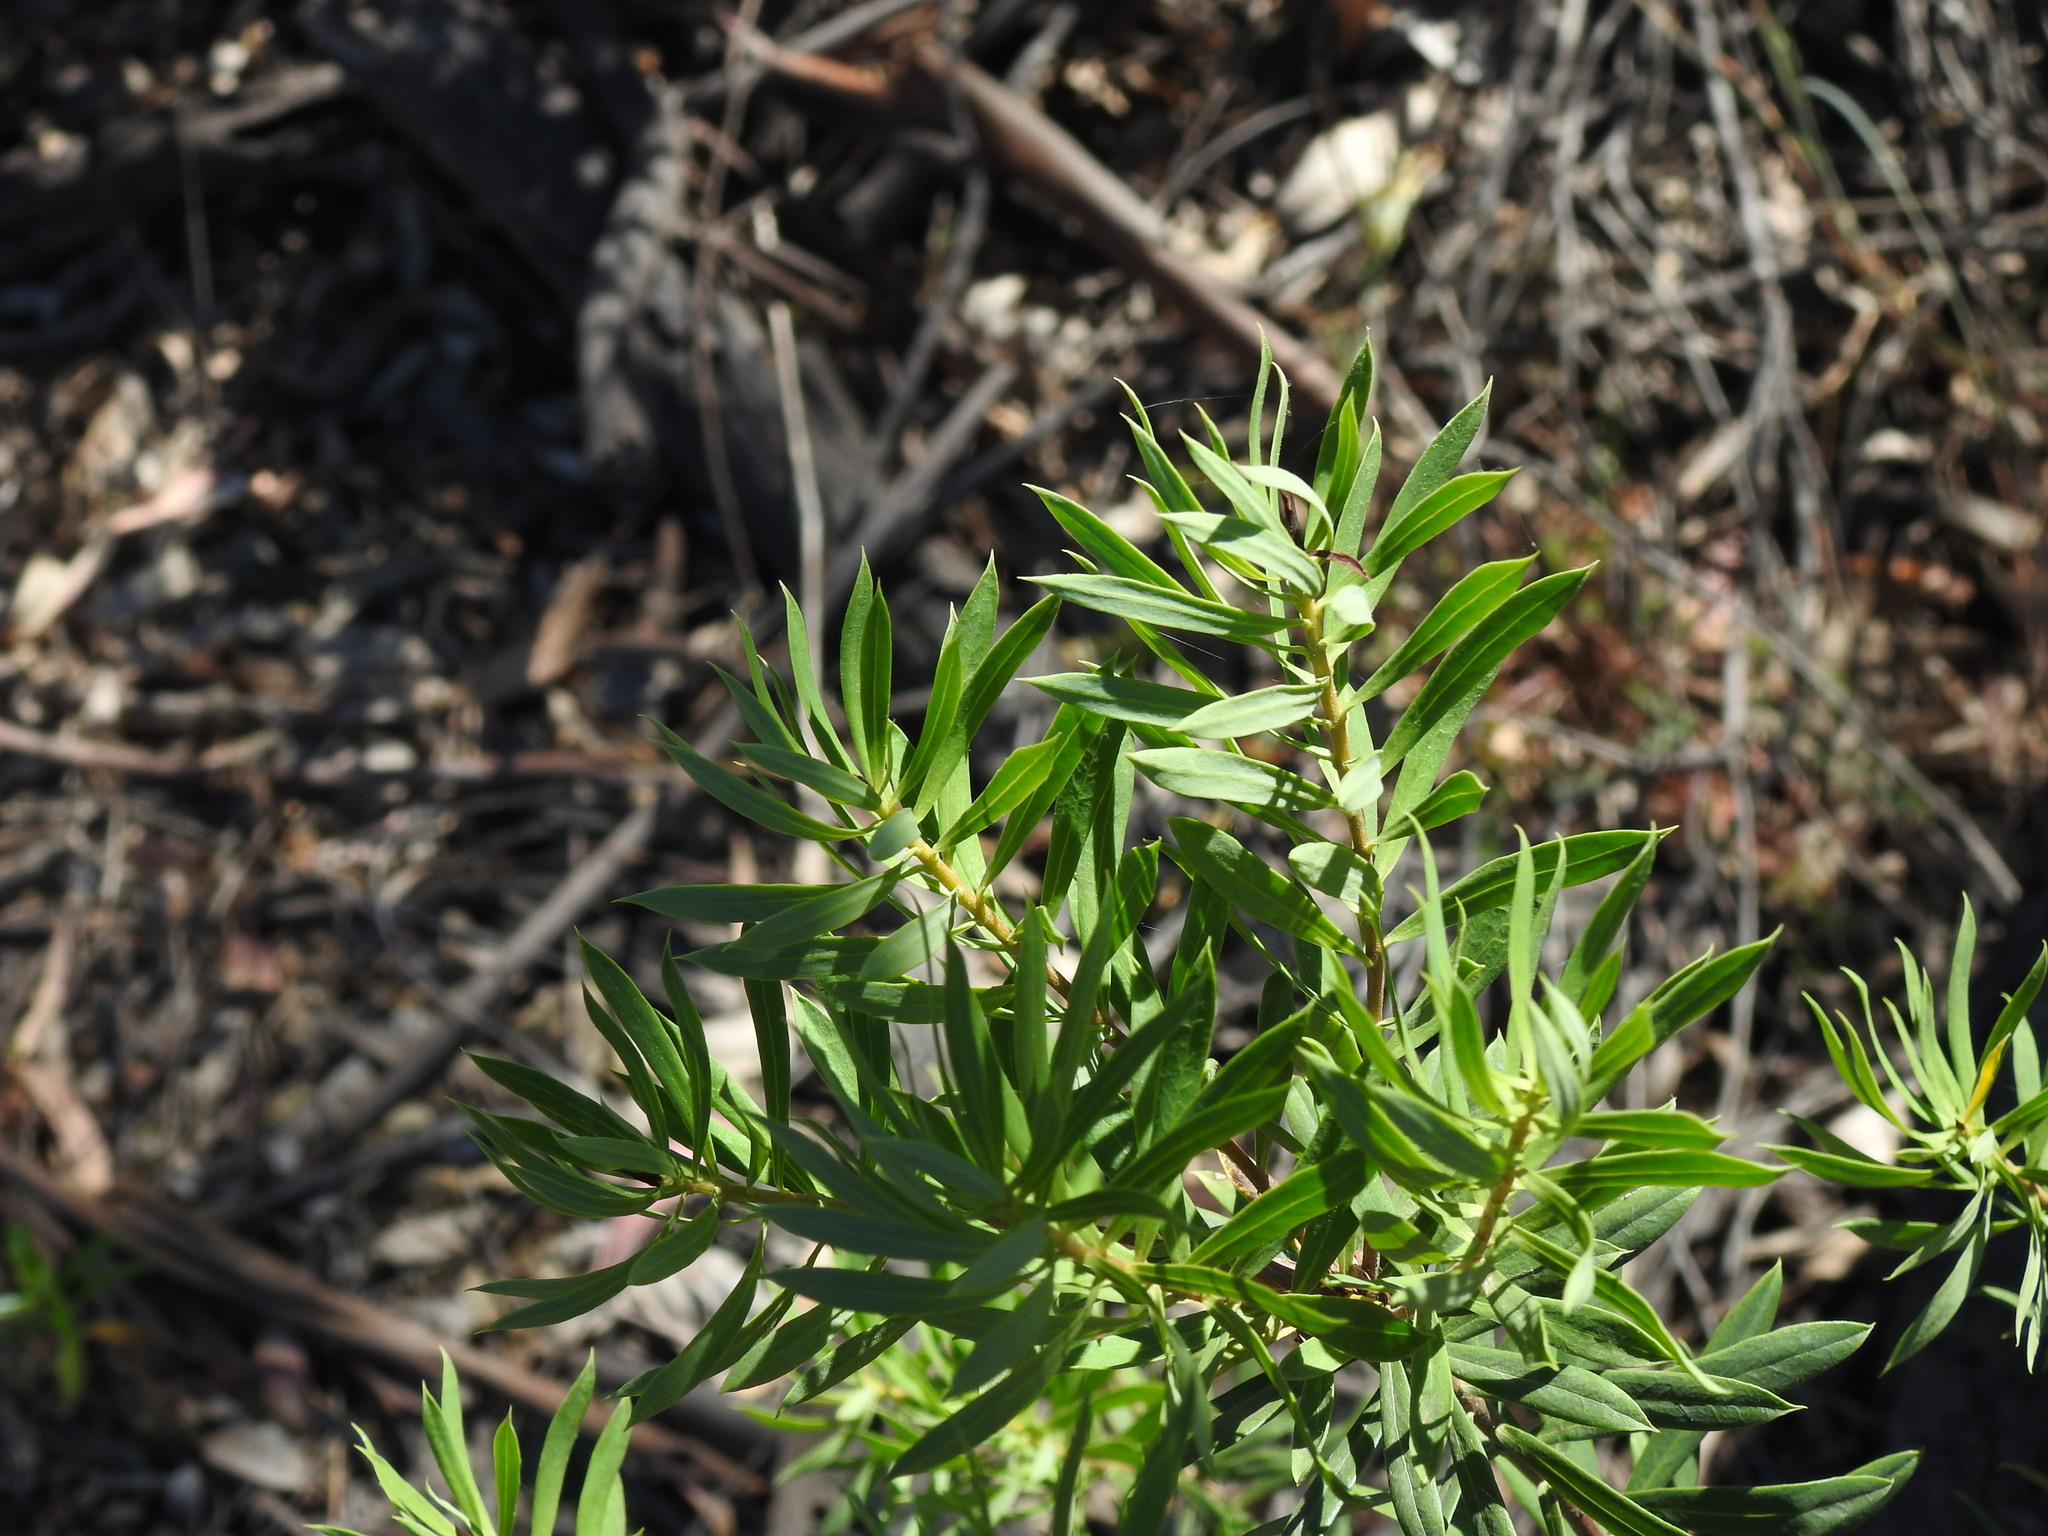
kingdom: Plantae
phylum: Tracheophyta
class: Magnoliopsida
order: Malvales
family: Thymelaeaceae
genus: Daphne
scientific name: Daphne gnidium
